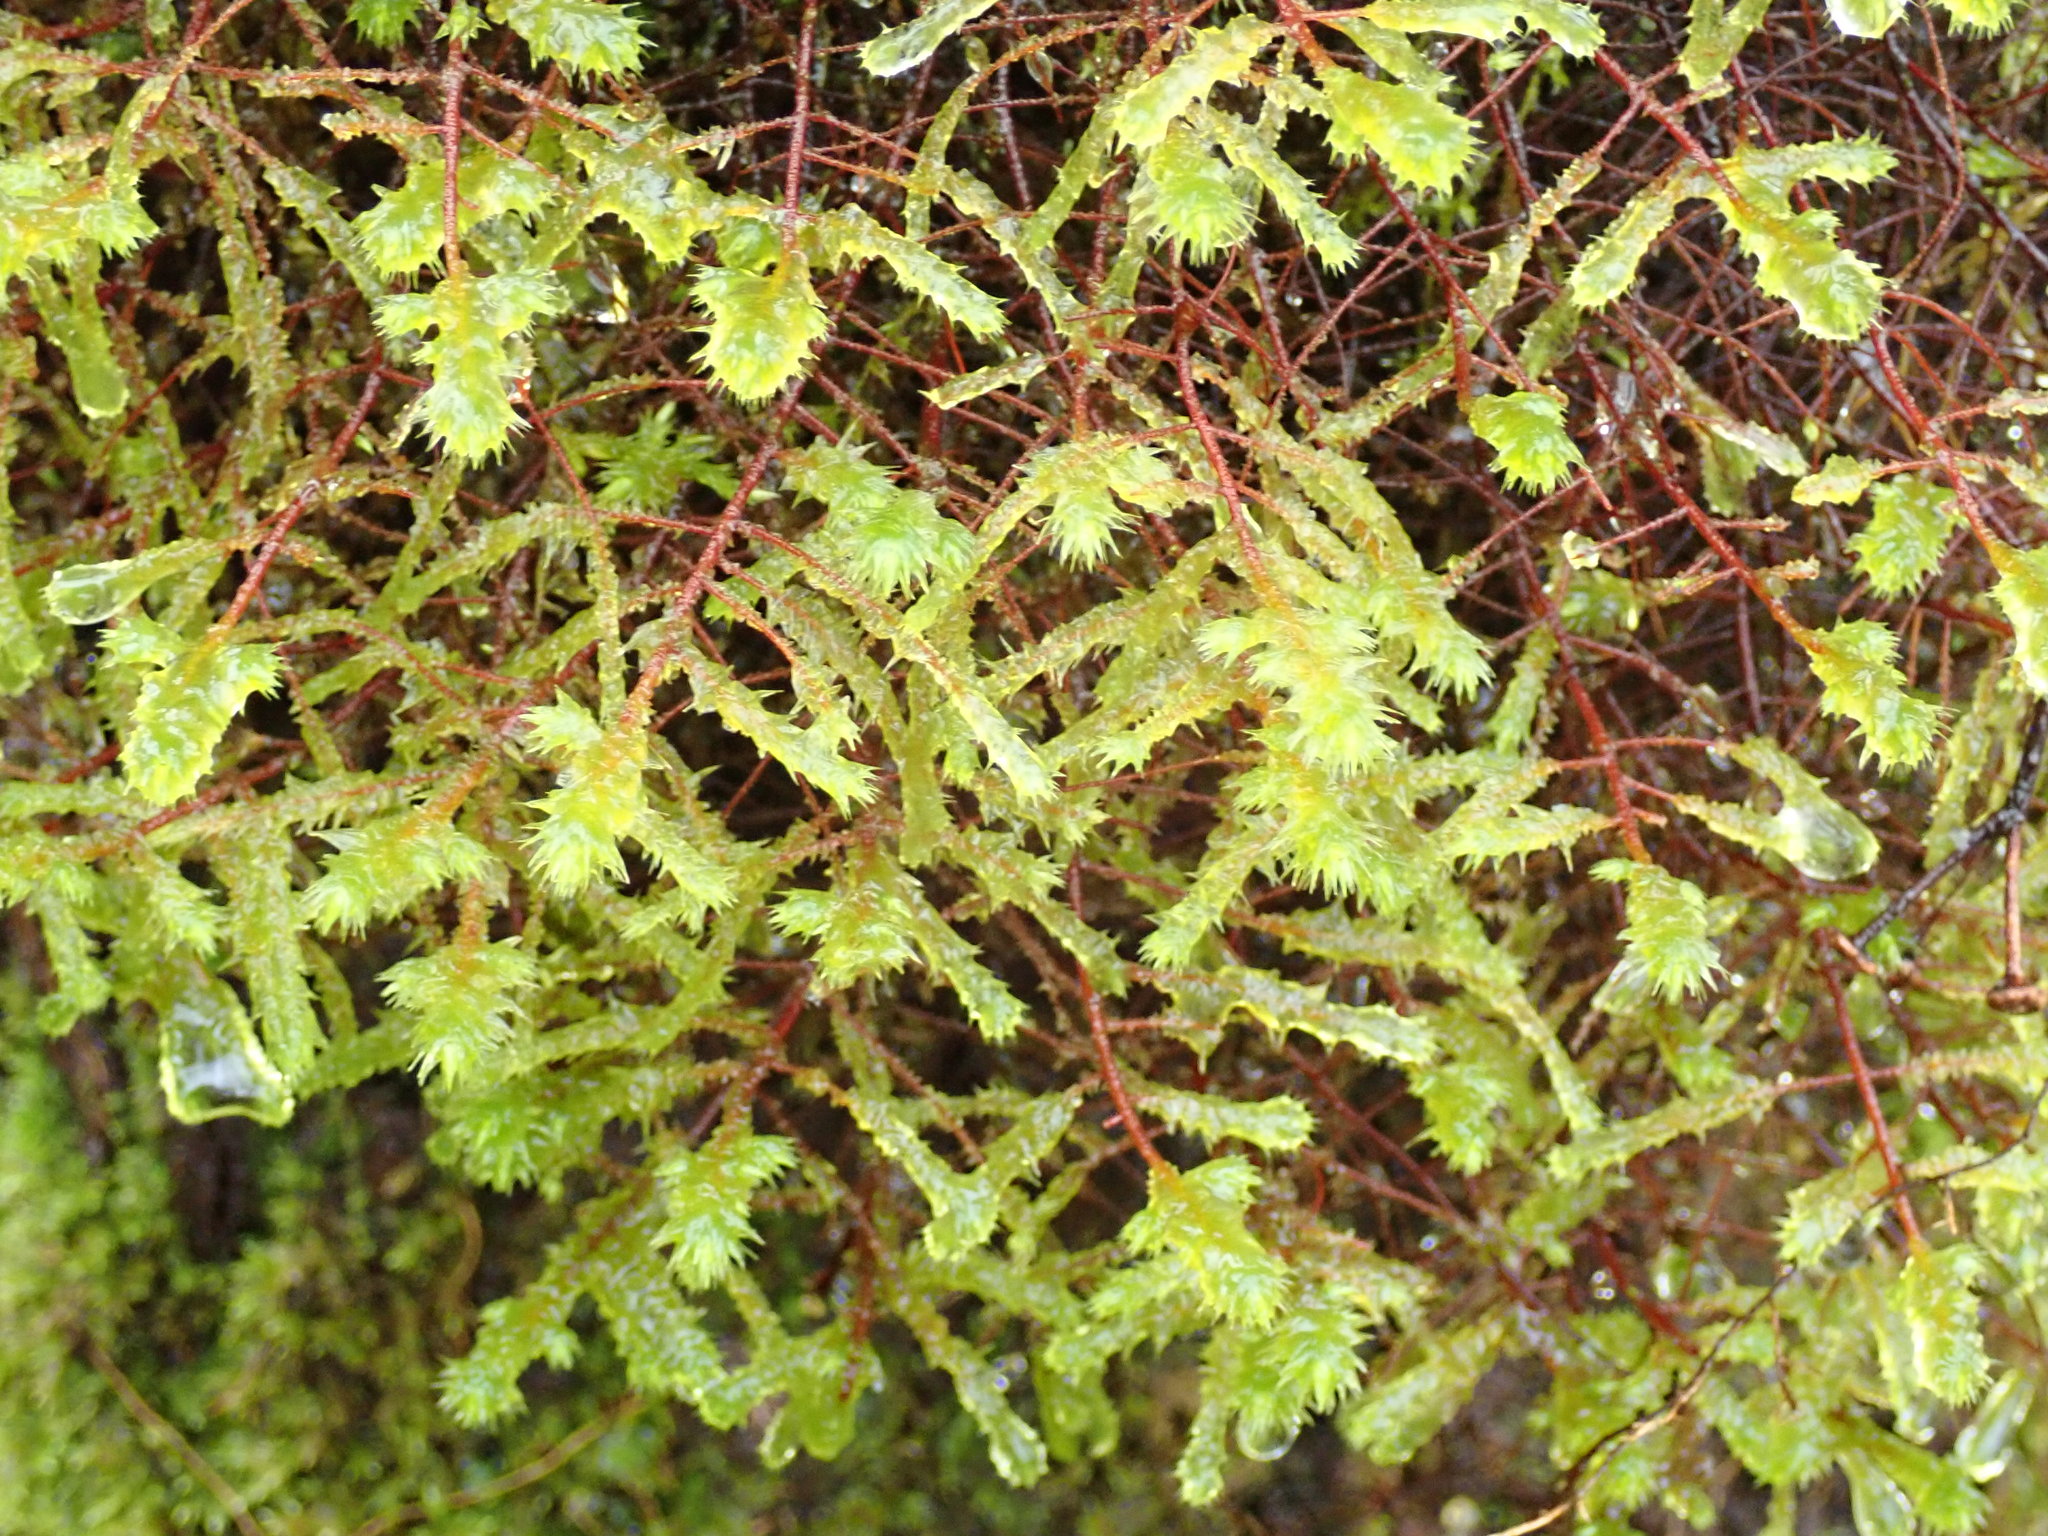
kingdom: Plantae
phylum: Bryophyta
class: Bryopsida
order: Hypnales
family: Hylocomiaceae
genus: Hylocomiadelphus
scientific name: Hylocomiadelphus triquetrus
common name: Rough goose neck moss
